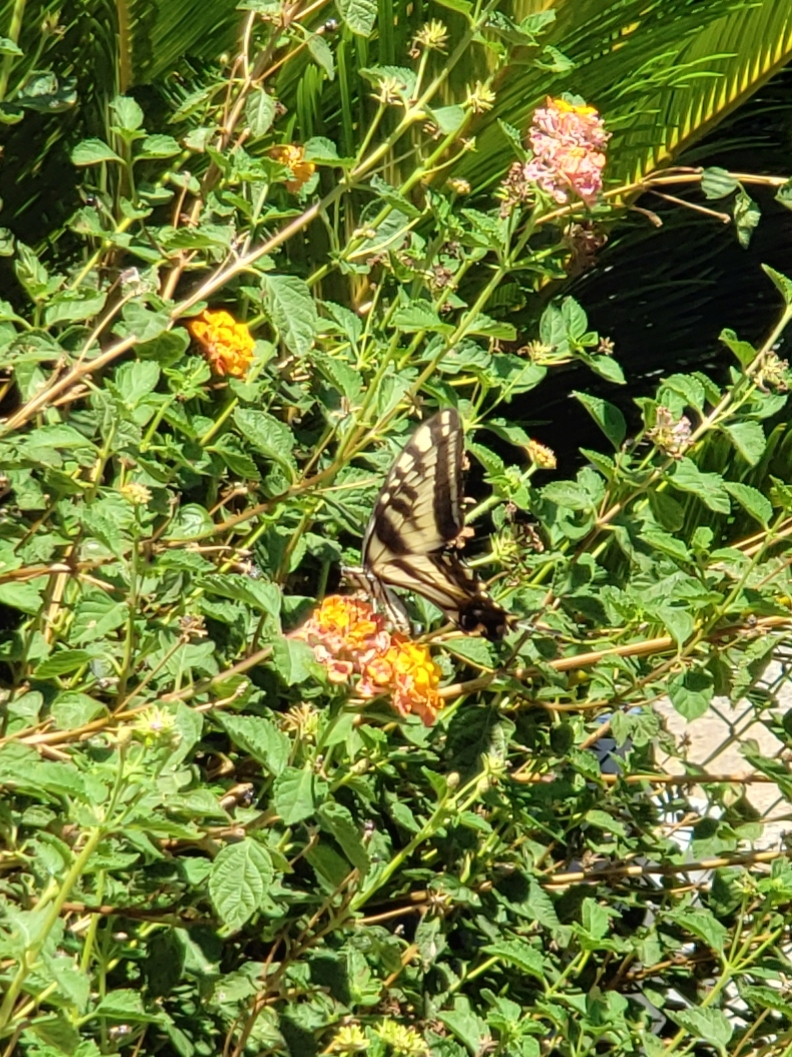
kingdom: Animalia
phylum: Arthropoda
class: Insecta
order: Lepidoptera
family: Papilionidae
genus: Papilio
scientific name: Papilio eurymedon
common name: Pale tiger swallowtail
